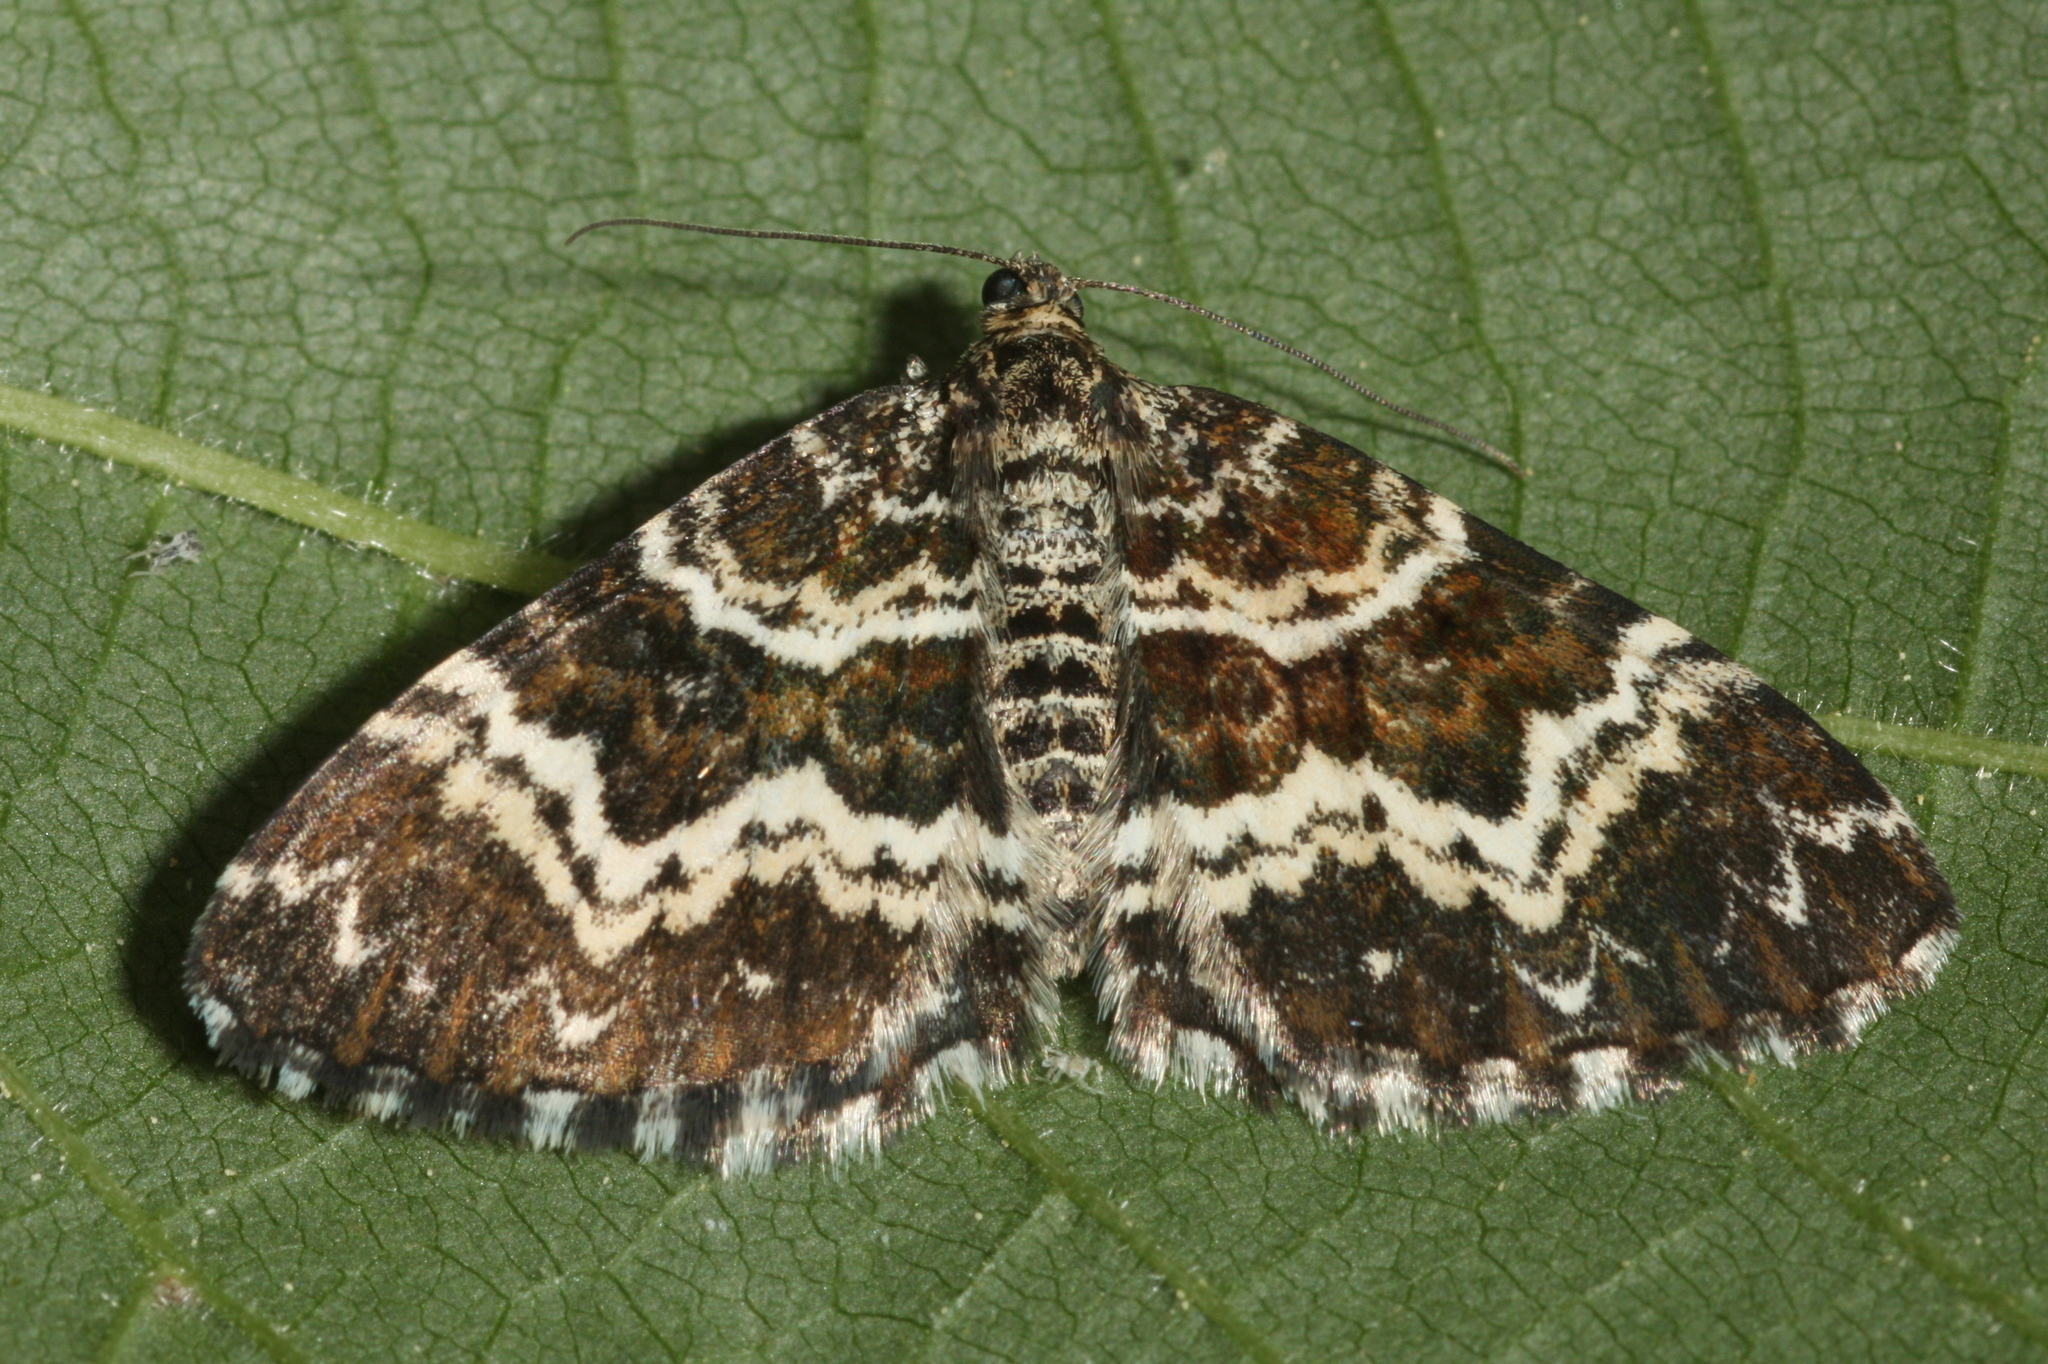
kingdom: Animalia
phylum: Arthropoda
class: Insecta
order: Lepidoptera
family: Geometridae
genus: Epirrhoe
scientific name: Epirrhoe tristata
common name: Small argent & sable
